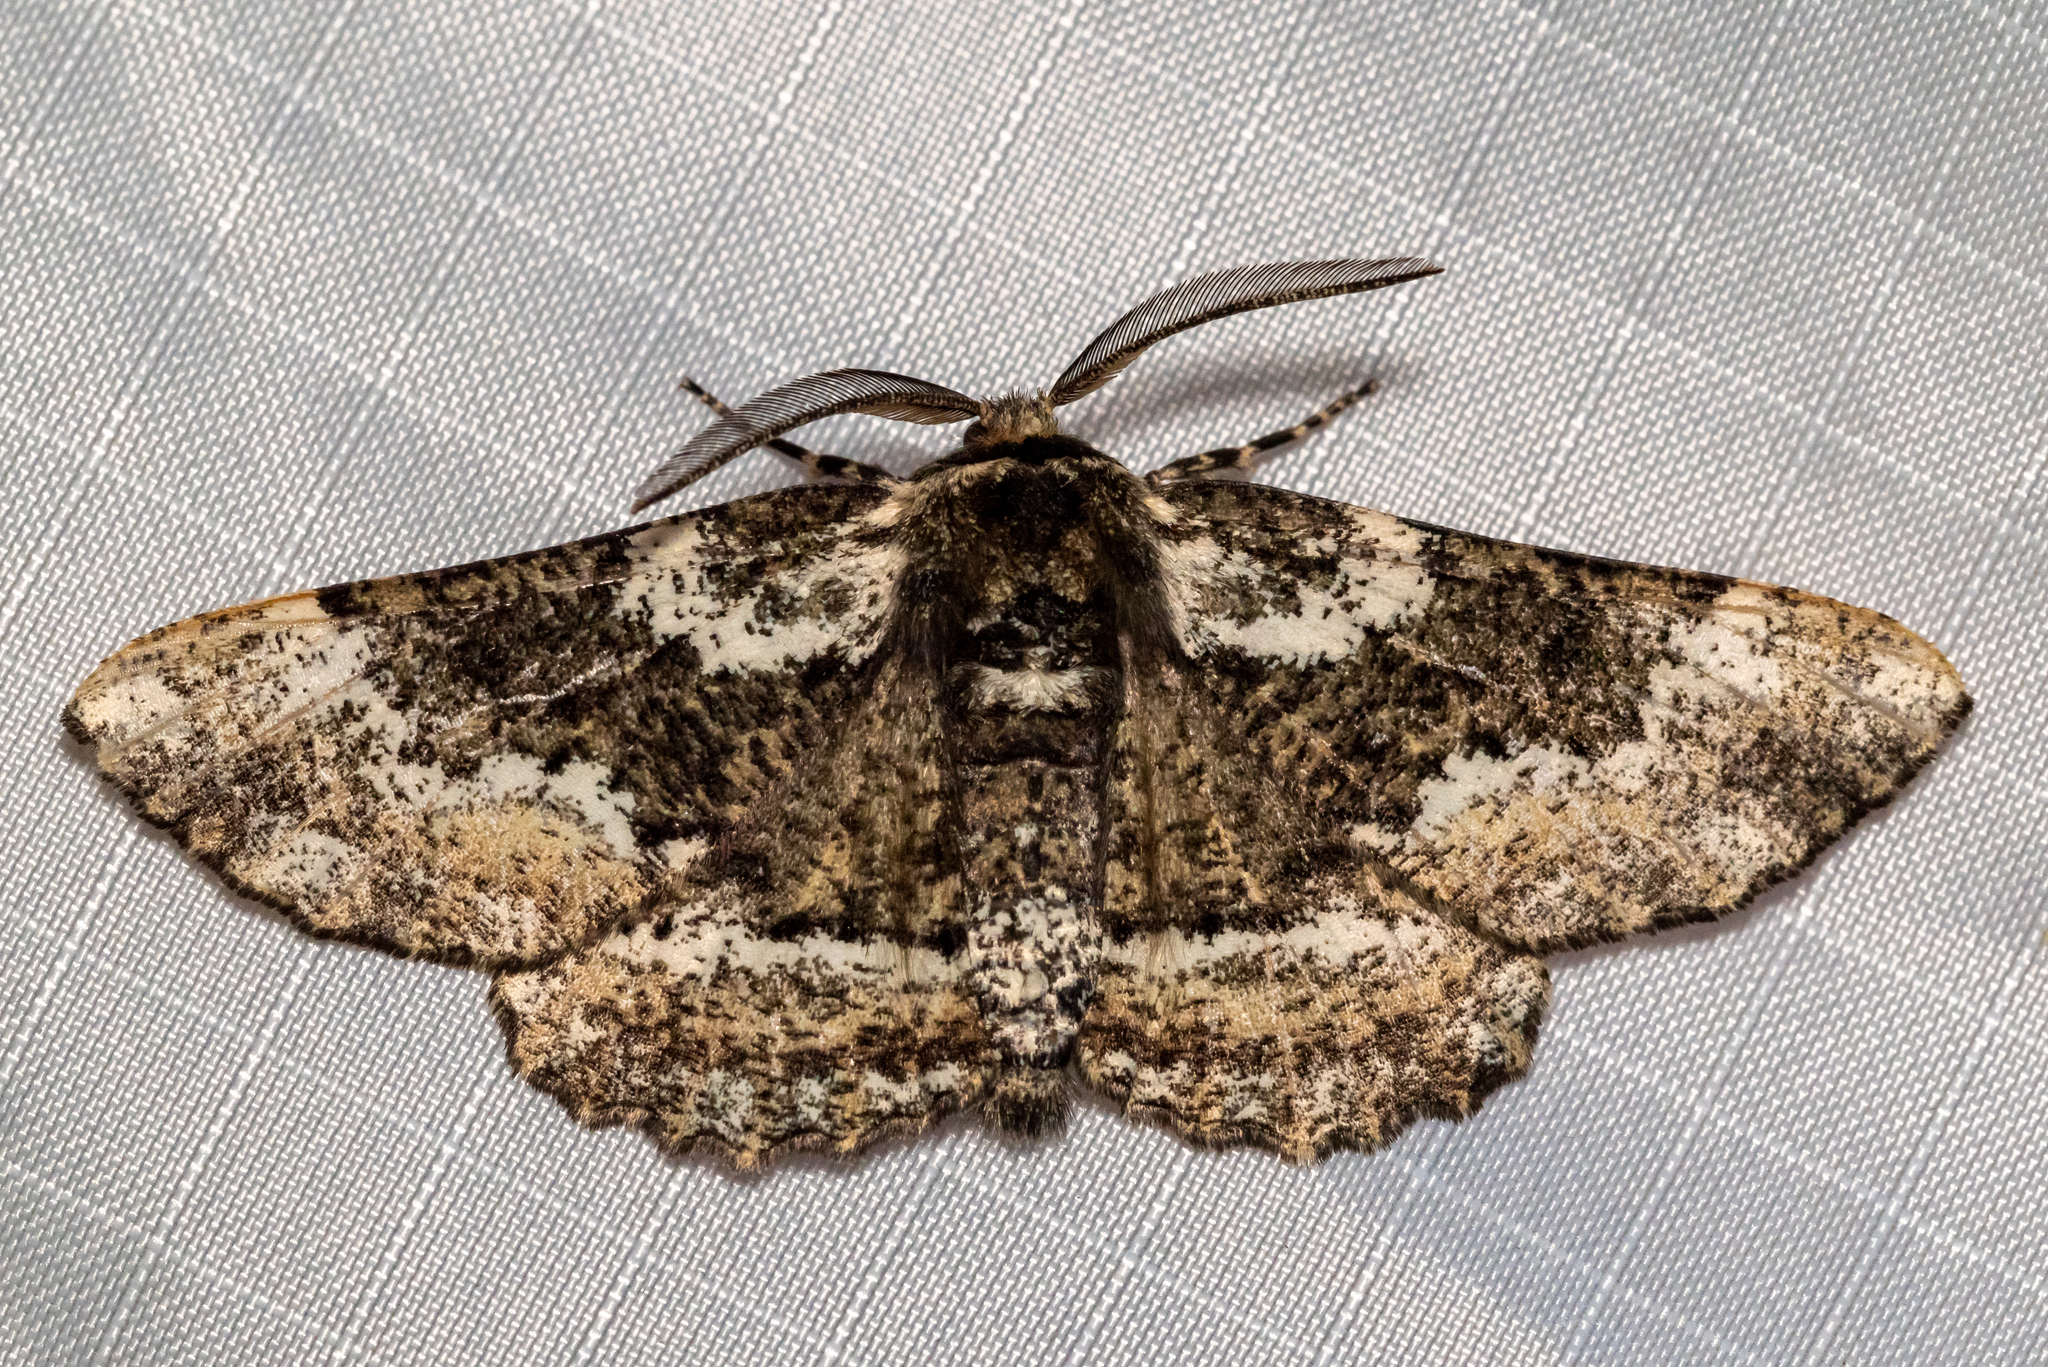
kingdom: Animalia
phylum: Arthropoda
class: Insecta
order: Lepidoptera
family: Geometridae
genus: Phaeoura
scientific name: Phaeoura quernaria
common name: Oak beauty
